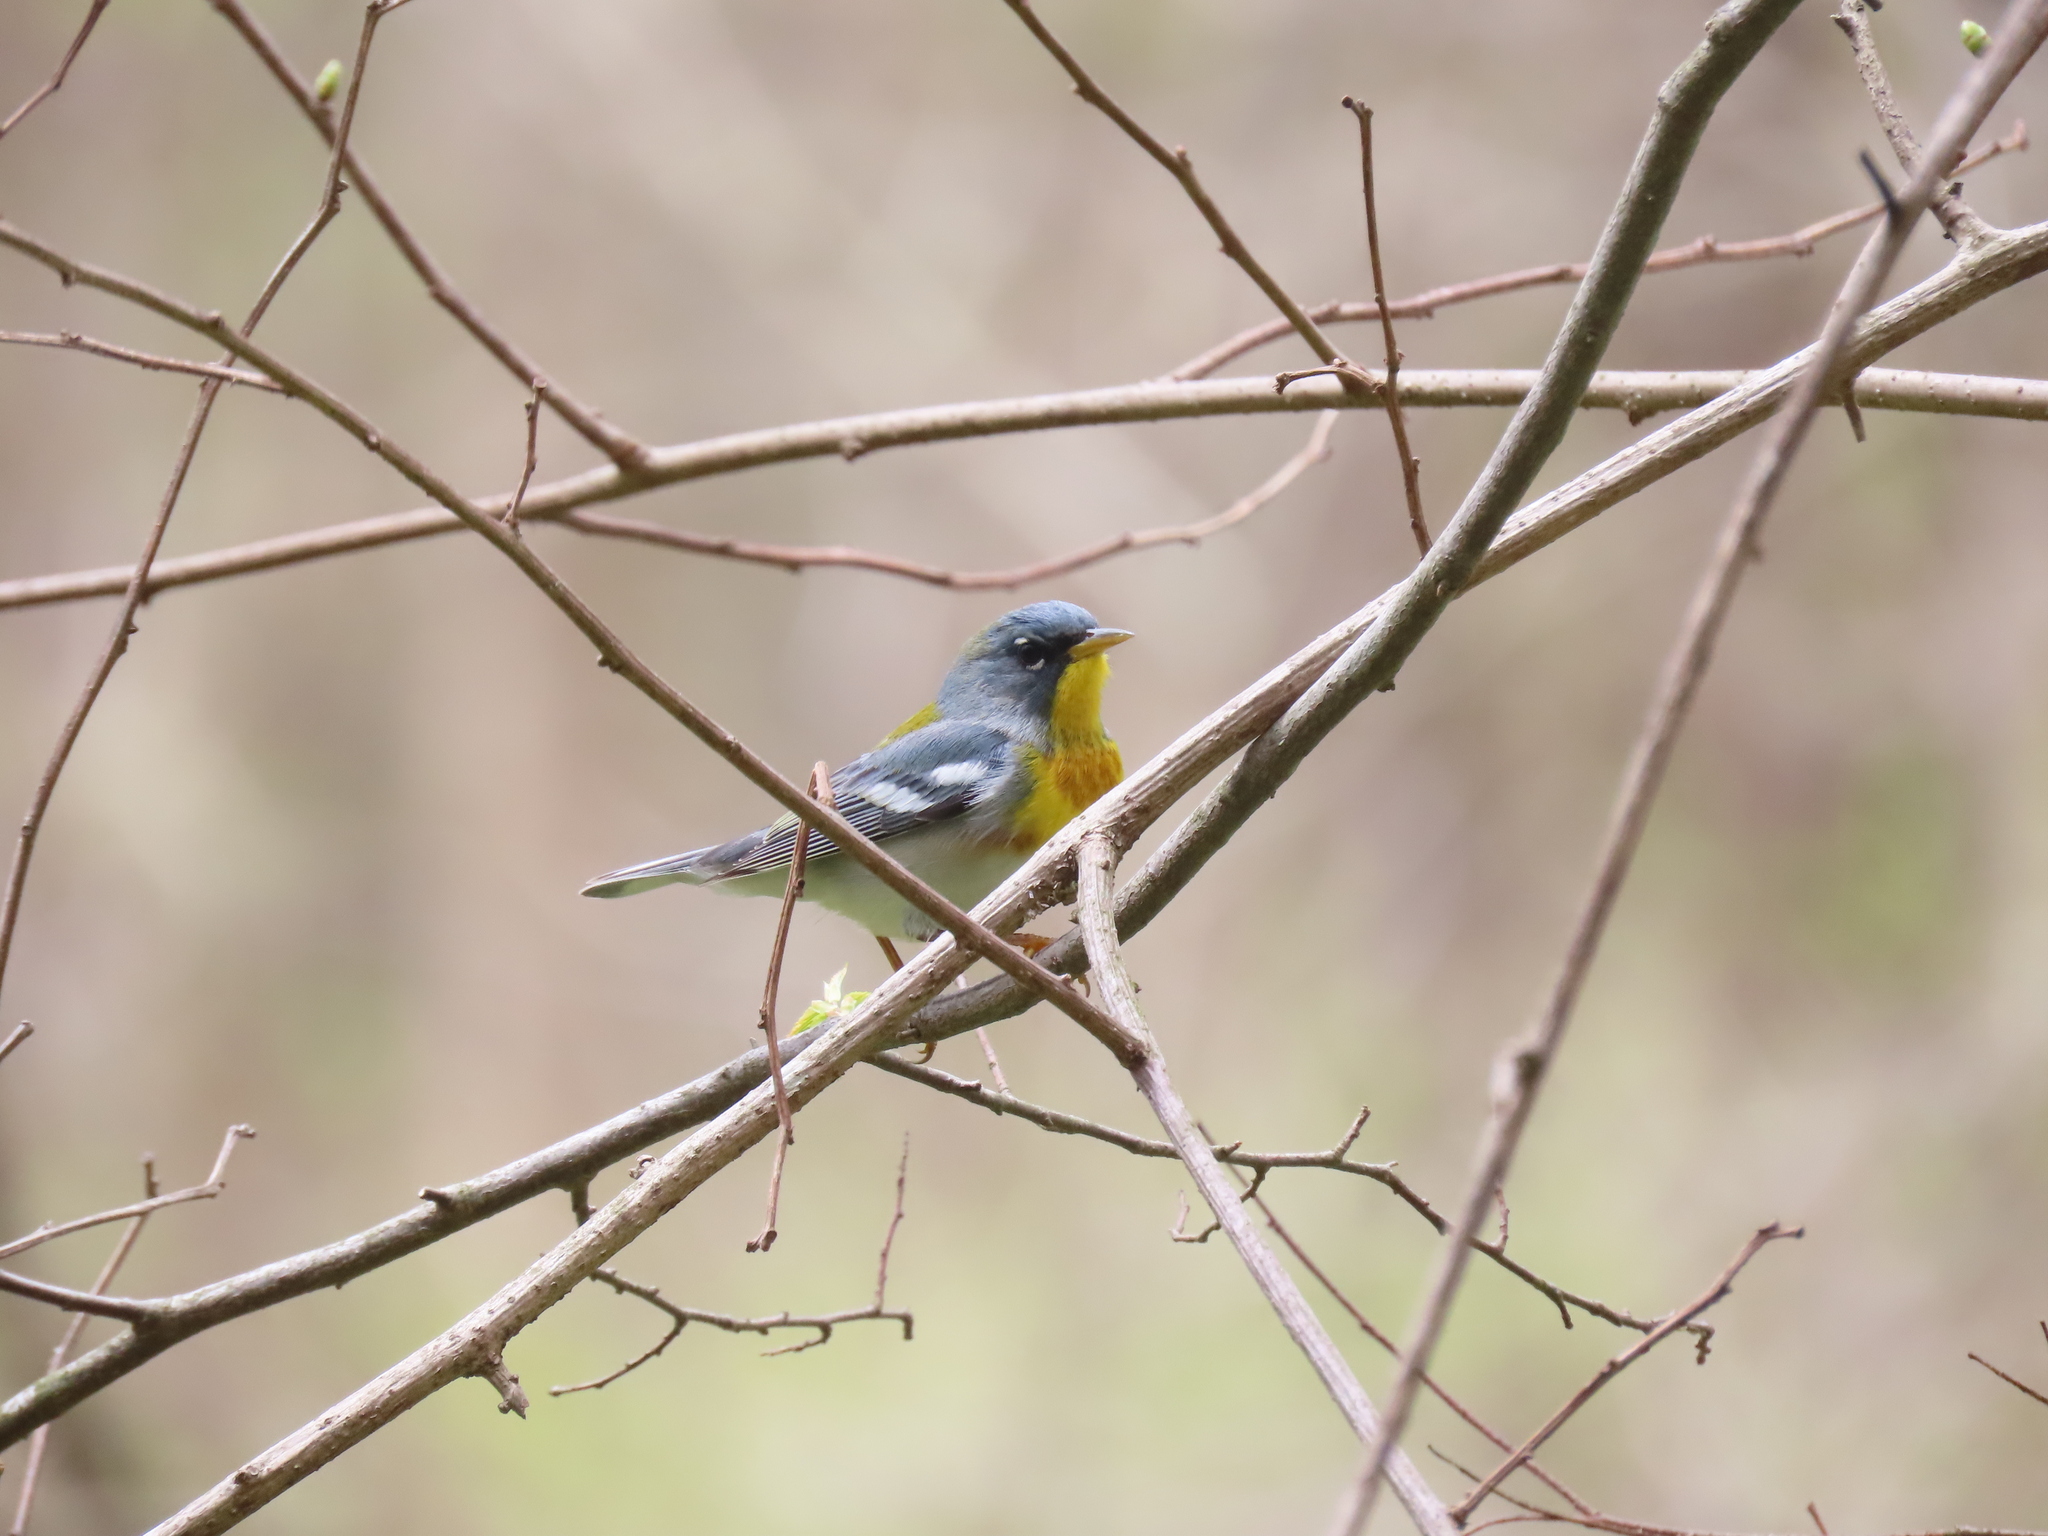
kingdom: Animalia
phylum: Chordata
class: Aves
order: Passeriformes
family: Parulidae
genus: Setophaga
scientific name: Setophaga americana
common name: Northern parula
